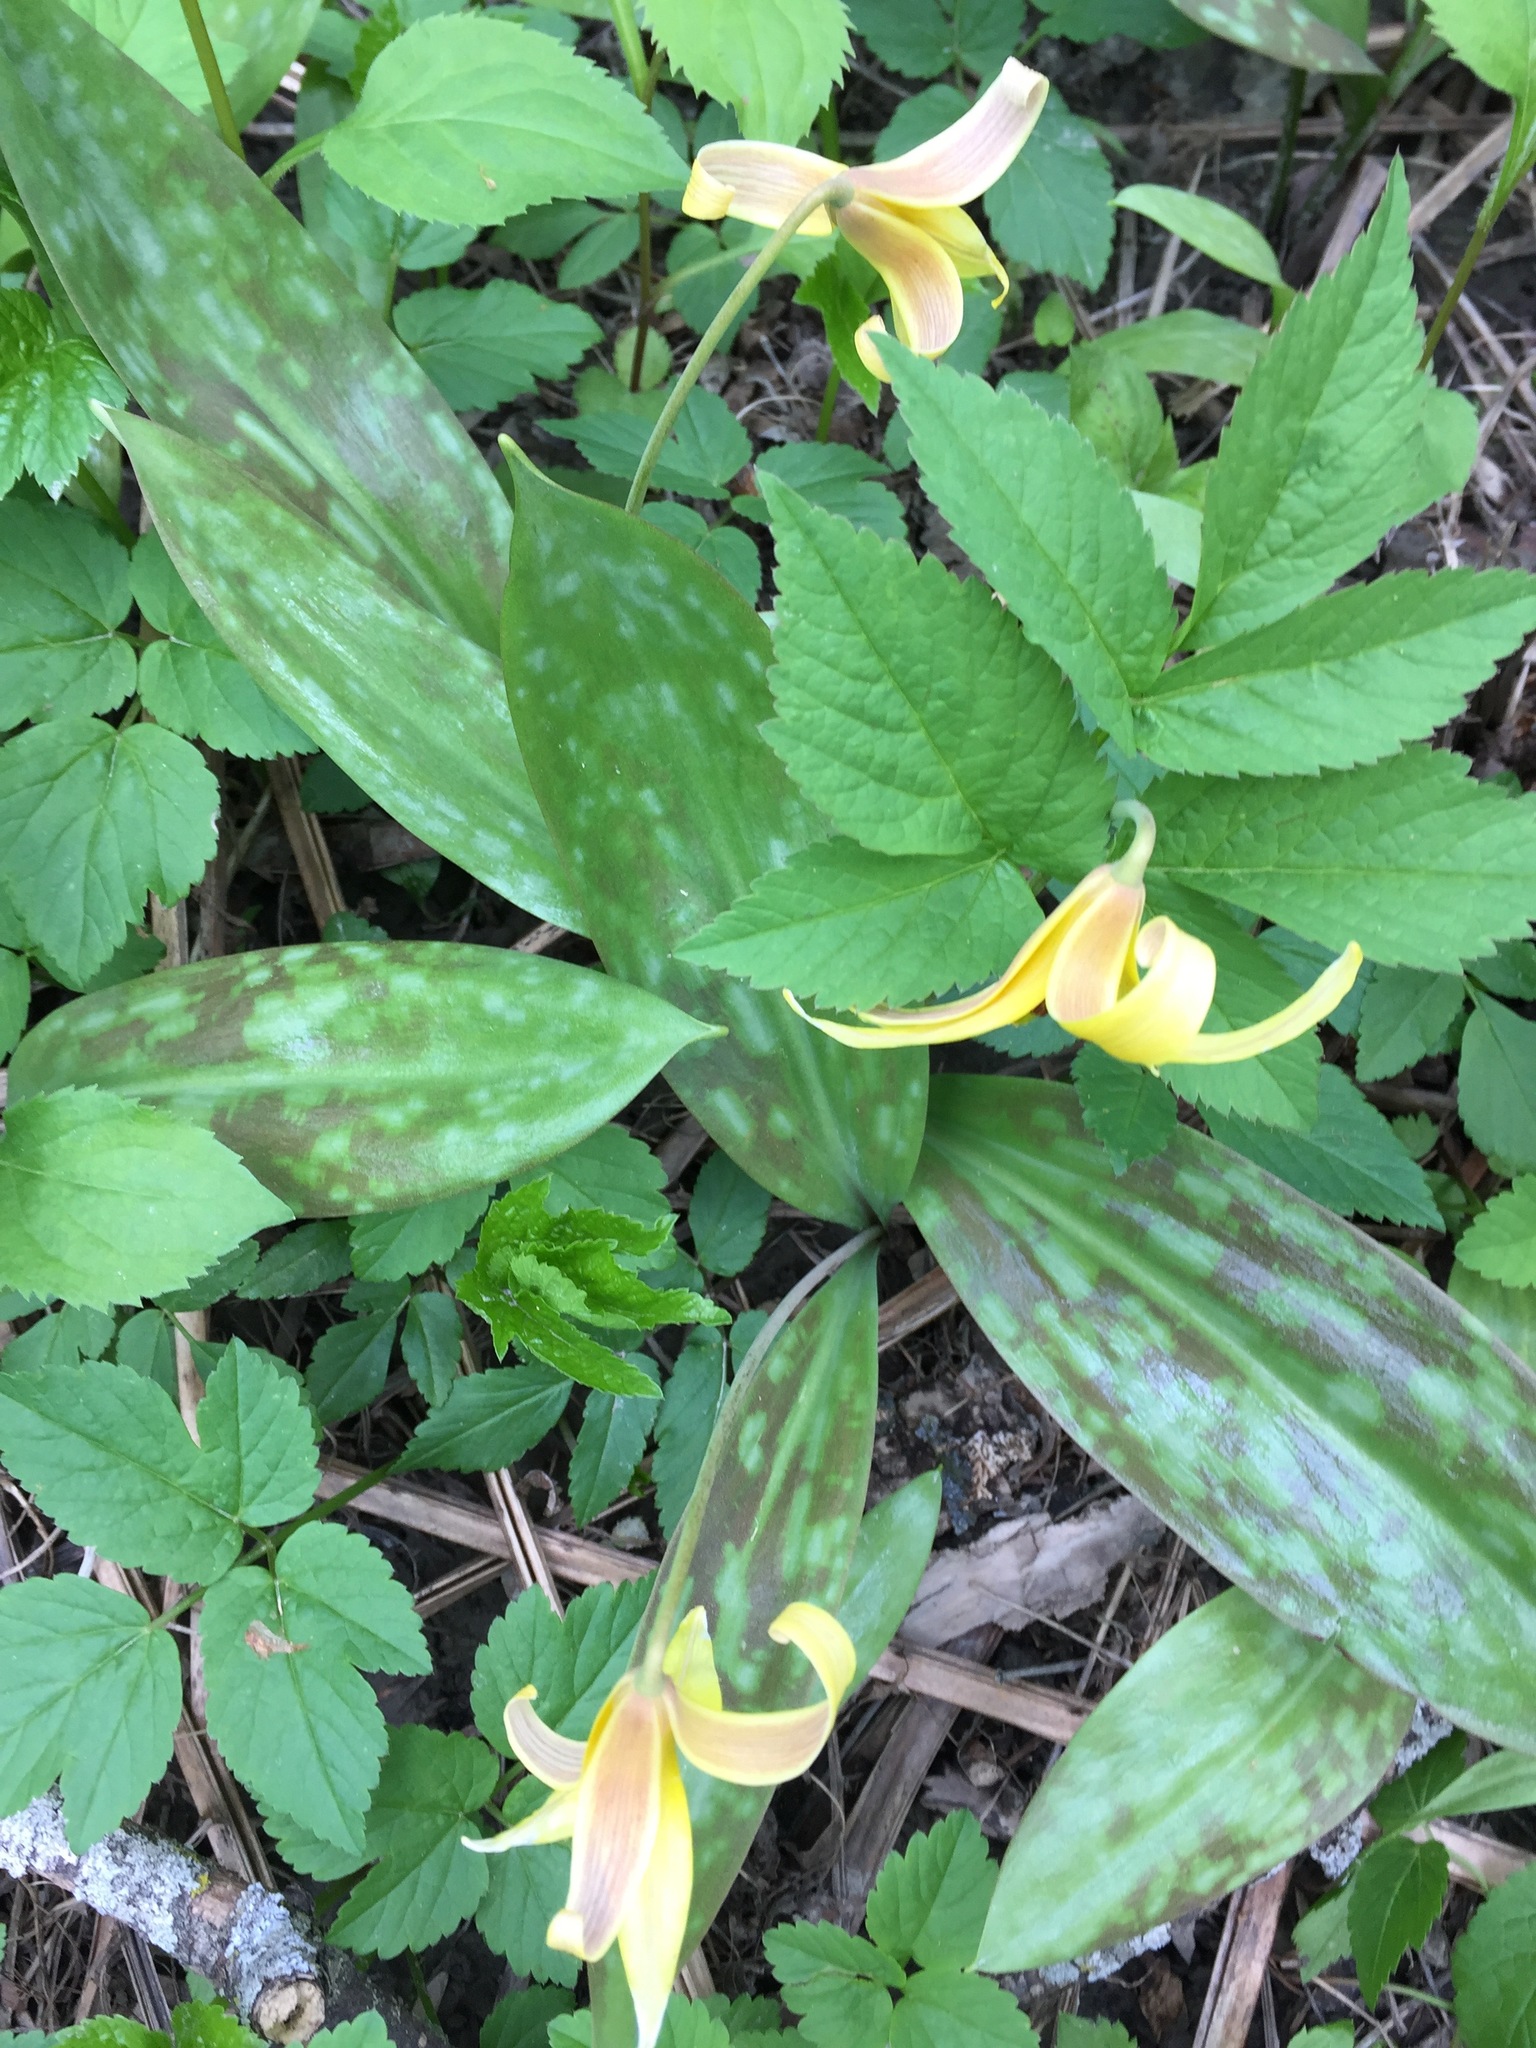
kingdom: Plantae
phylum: Tracheophyta
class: Liliopsida
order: Liliales
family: Liliaceae
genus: Erythronium
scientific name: Erythronium americanum
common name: Yellow adder's-tongue
